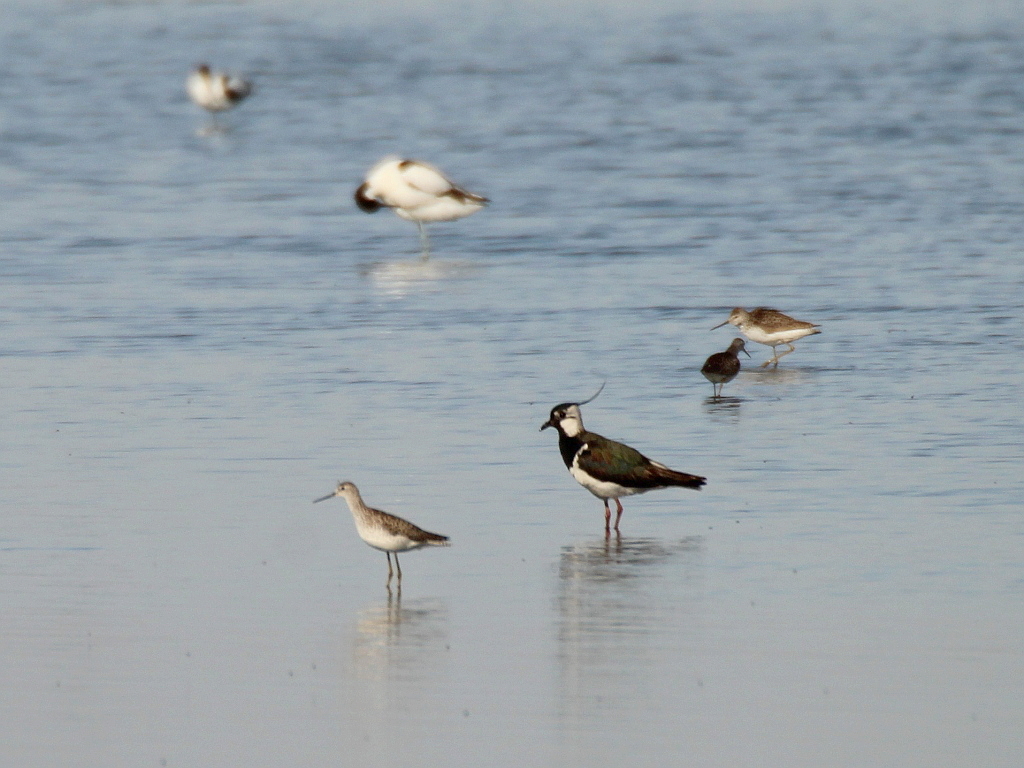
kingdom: Animalia
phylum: Chordata
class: Aves
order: Charadriiformes
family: Charadriidae
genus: Vanellus
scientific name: Vanellus vanellus
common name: Northern lapwing
